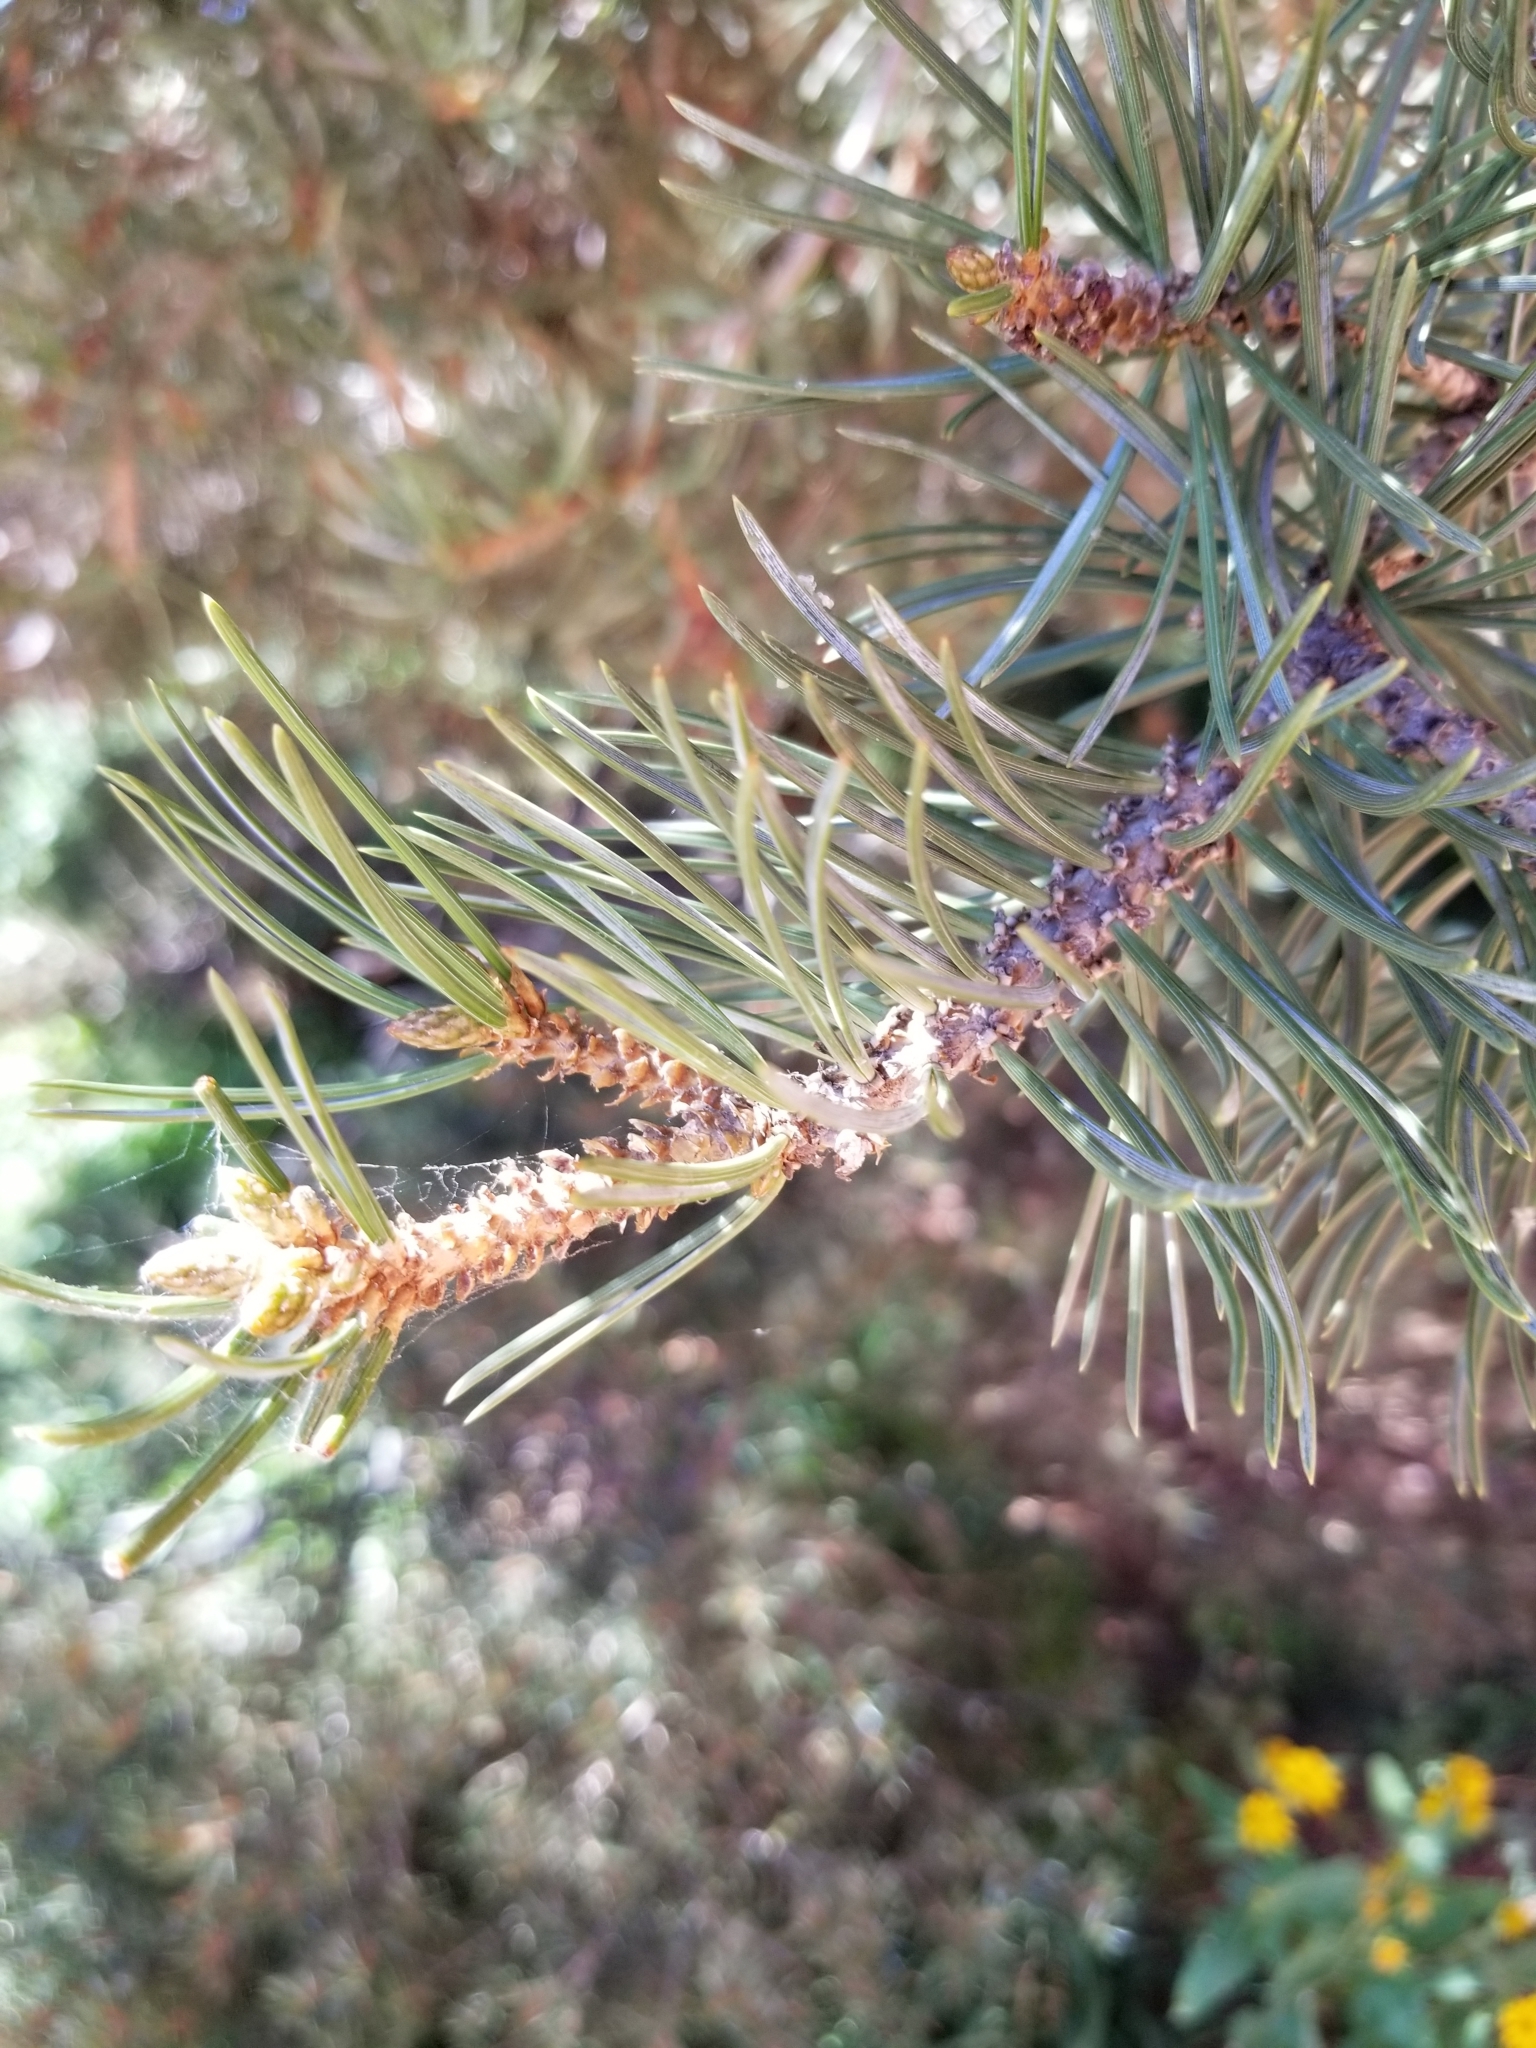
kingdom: Plantae
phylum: Tracheophyta
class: Pinopsida
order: Pinales
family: Pinaceae
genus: Pinus
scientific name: Pinus edulis
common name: Colorado pinyon
